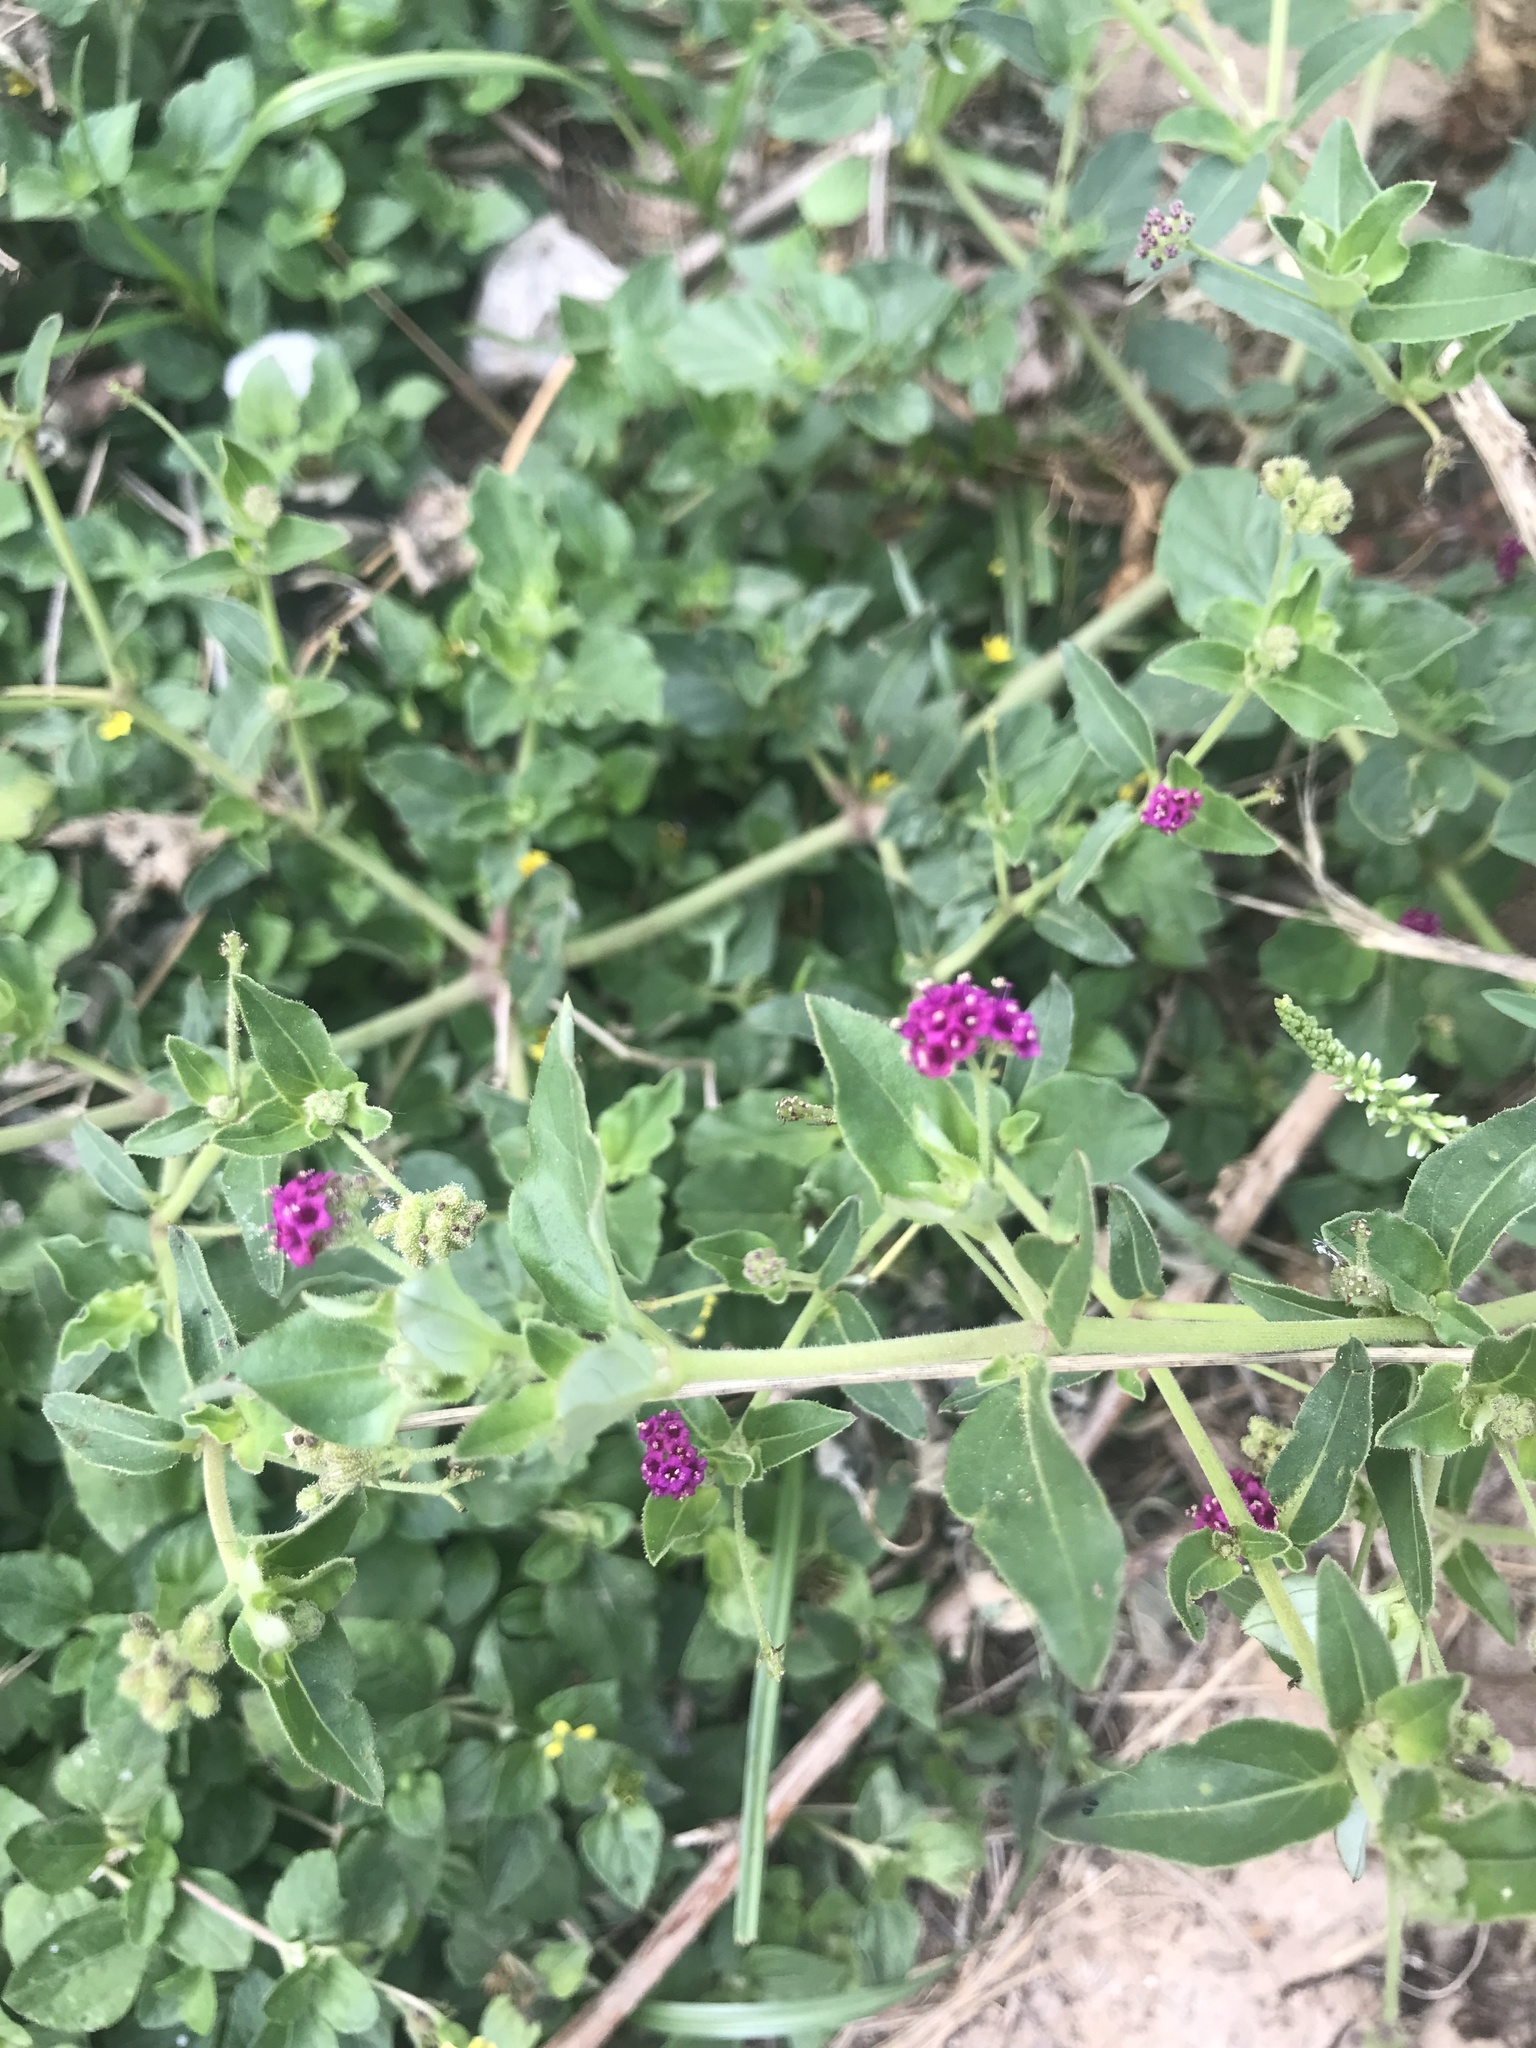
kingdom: Plantae
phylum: Tracheophyta
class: Magnoliopsida
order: Caryophyllales
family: Nyctaginaceae
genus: Boerhavia
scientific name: Boerhavia coccinea
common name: Scarlet spiderling
